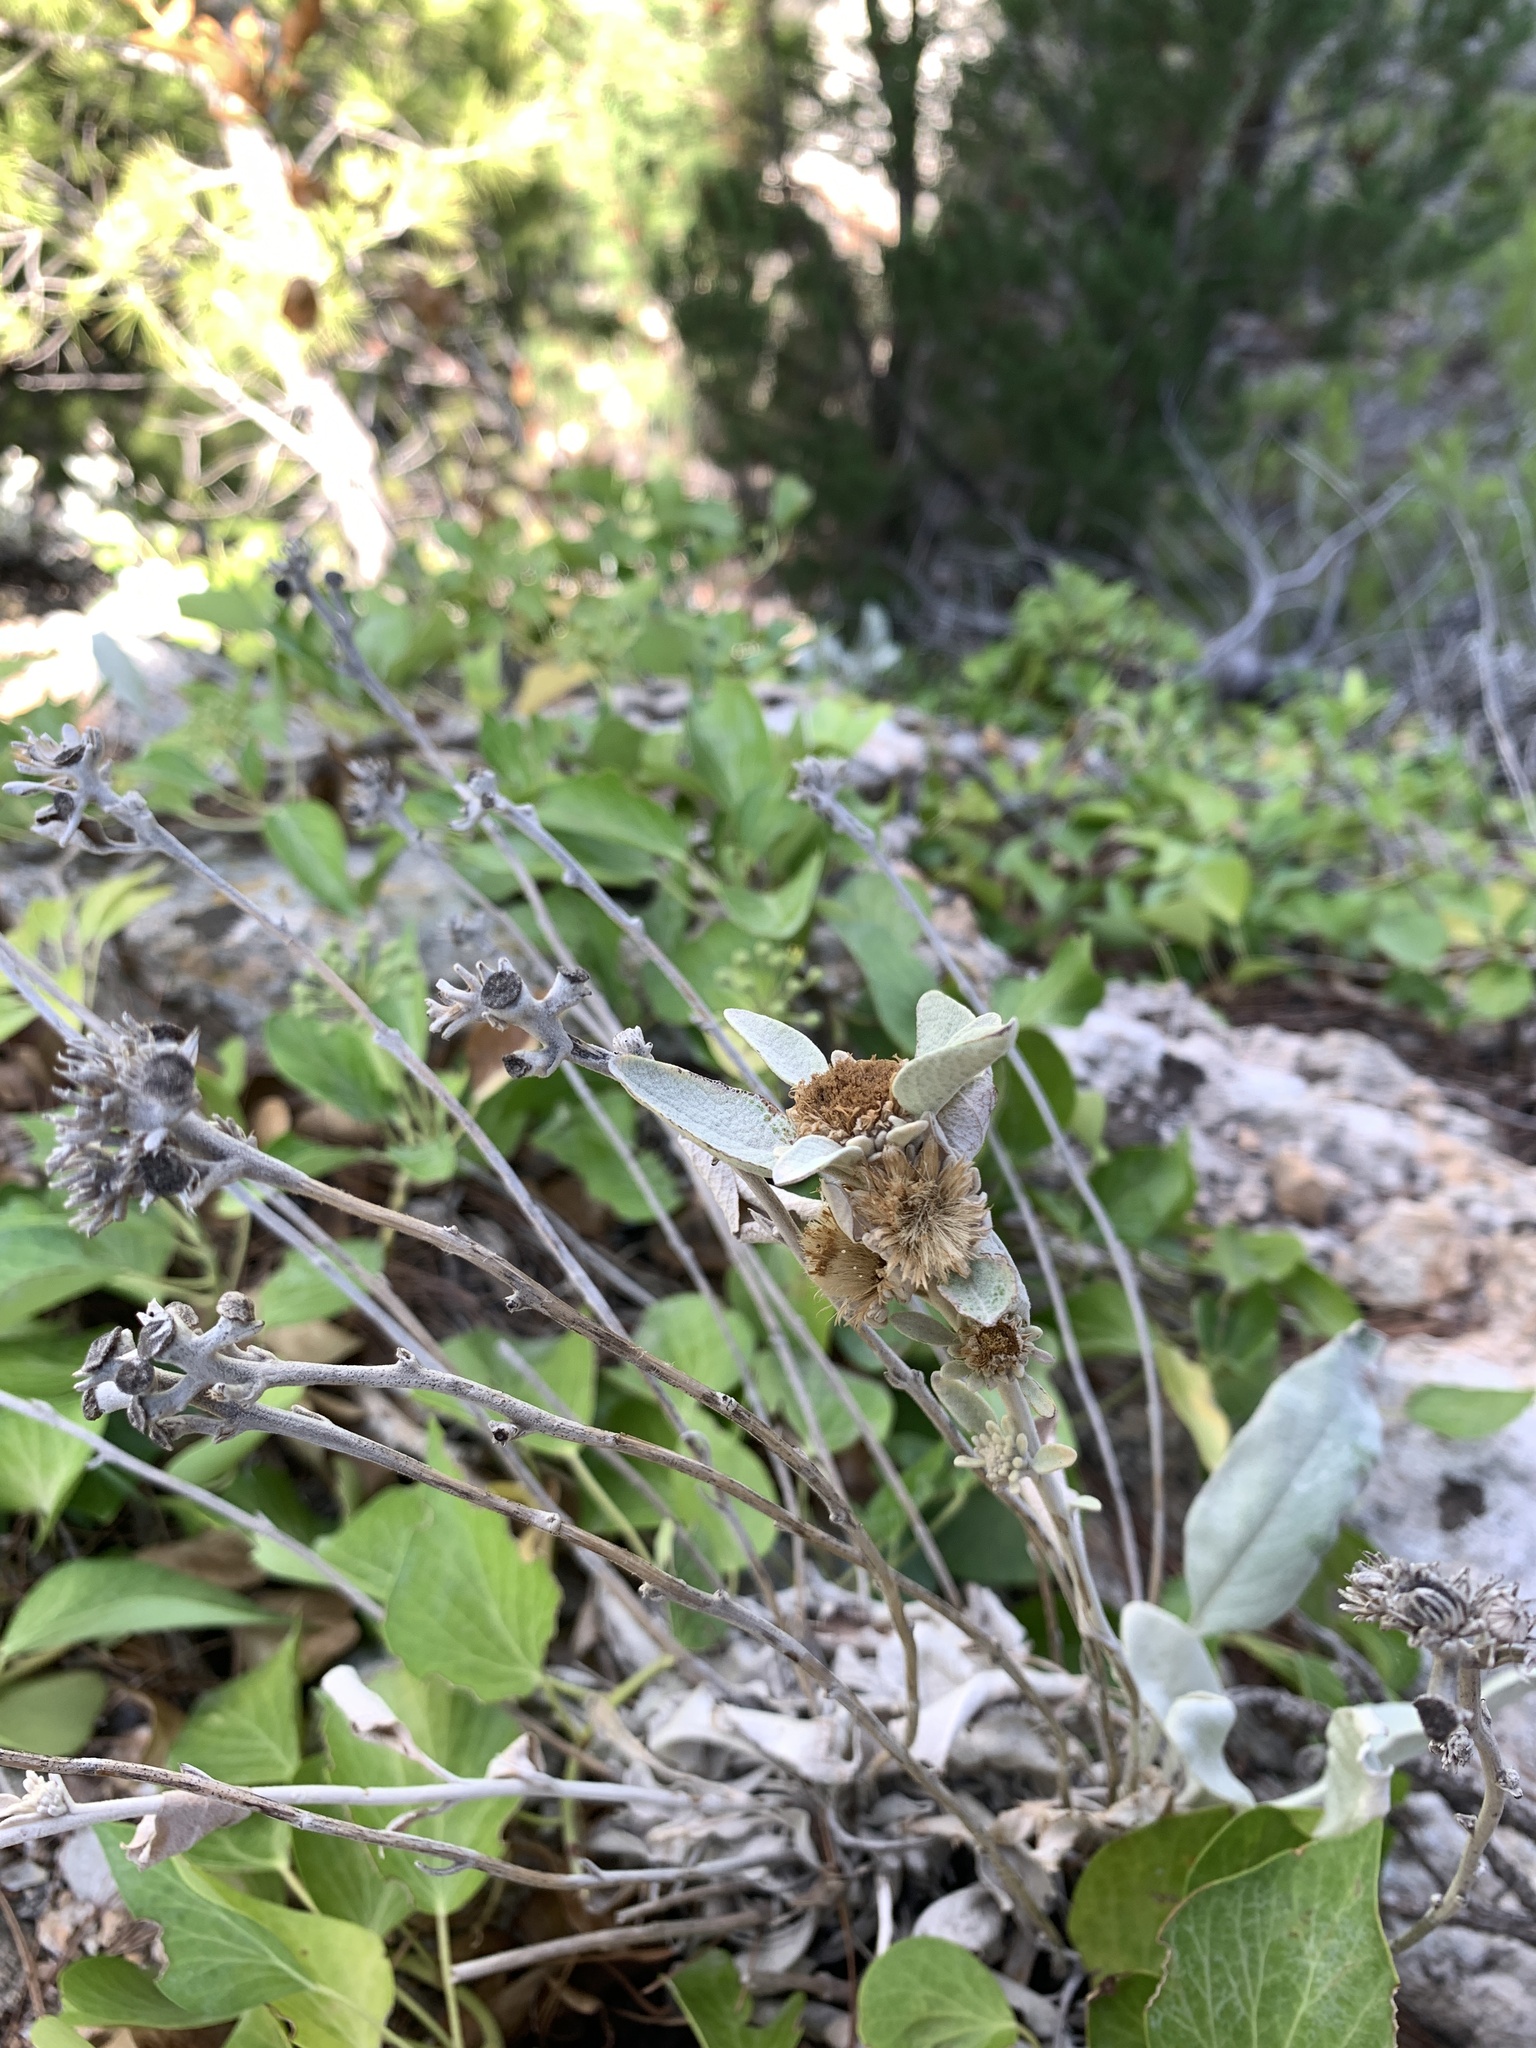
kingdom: Plantae
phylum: Tracheophyta
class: Magnoliopsida
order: Asterales
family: Asteraceae
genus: Pentanema
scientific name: Pentanema verbascifolium
